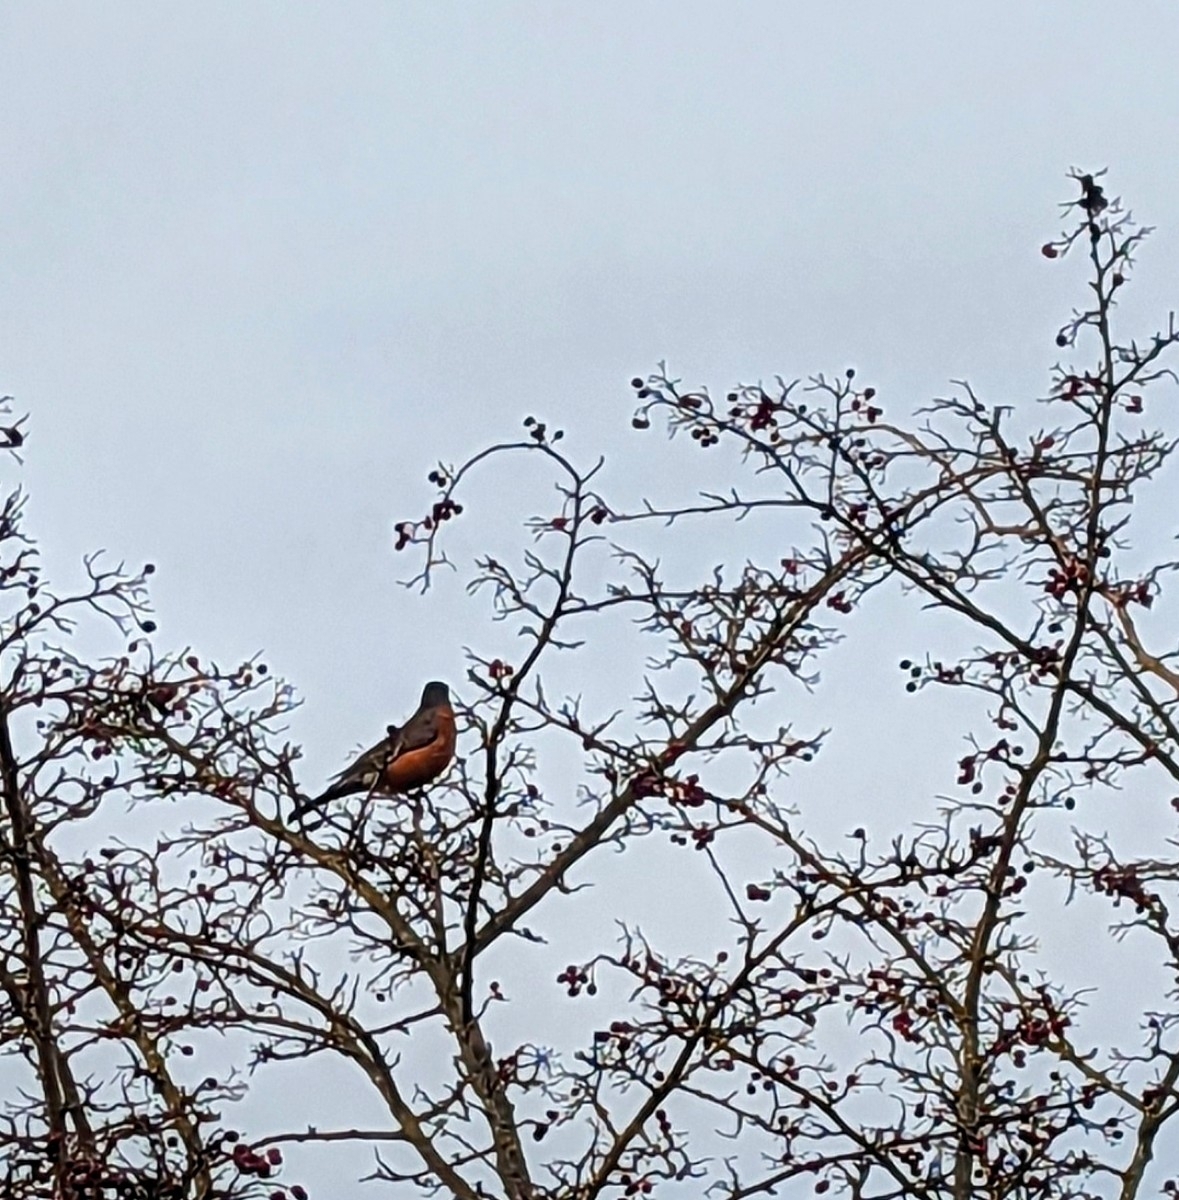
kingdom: Animalia
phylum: Chordata
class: Aves
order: Passeriformes
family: Turdidae
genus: Turdus
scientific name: Turdus migratorius
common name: American robin
